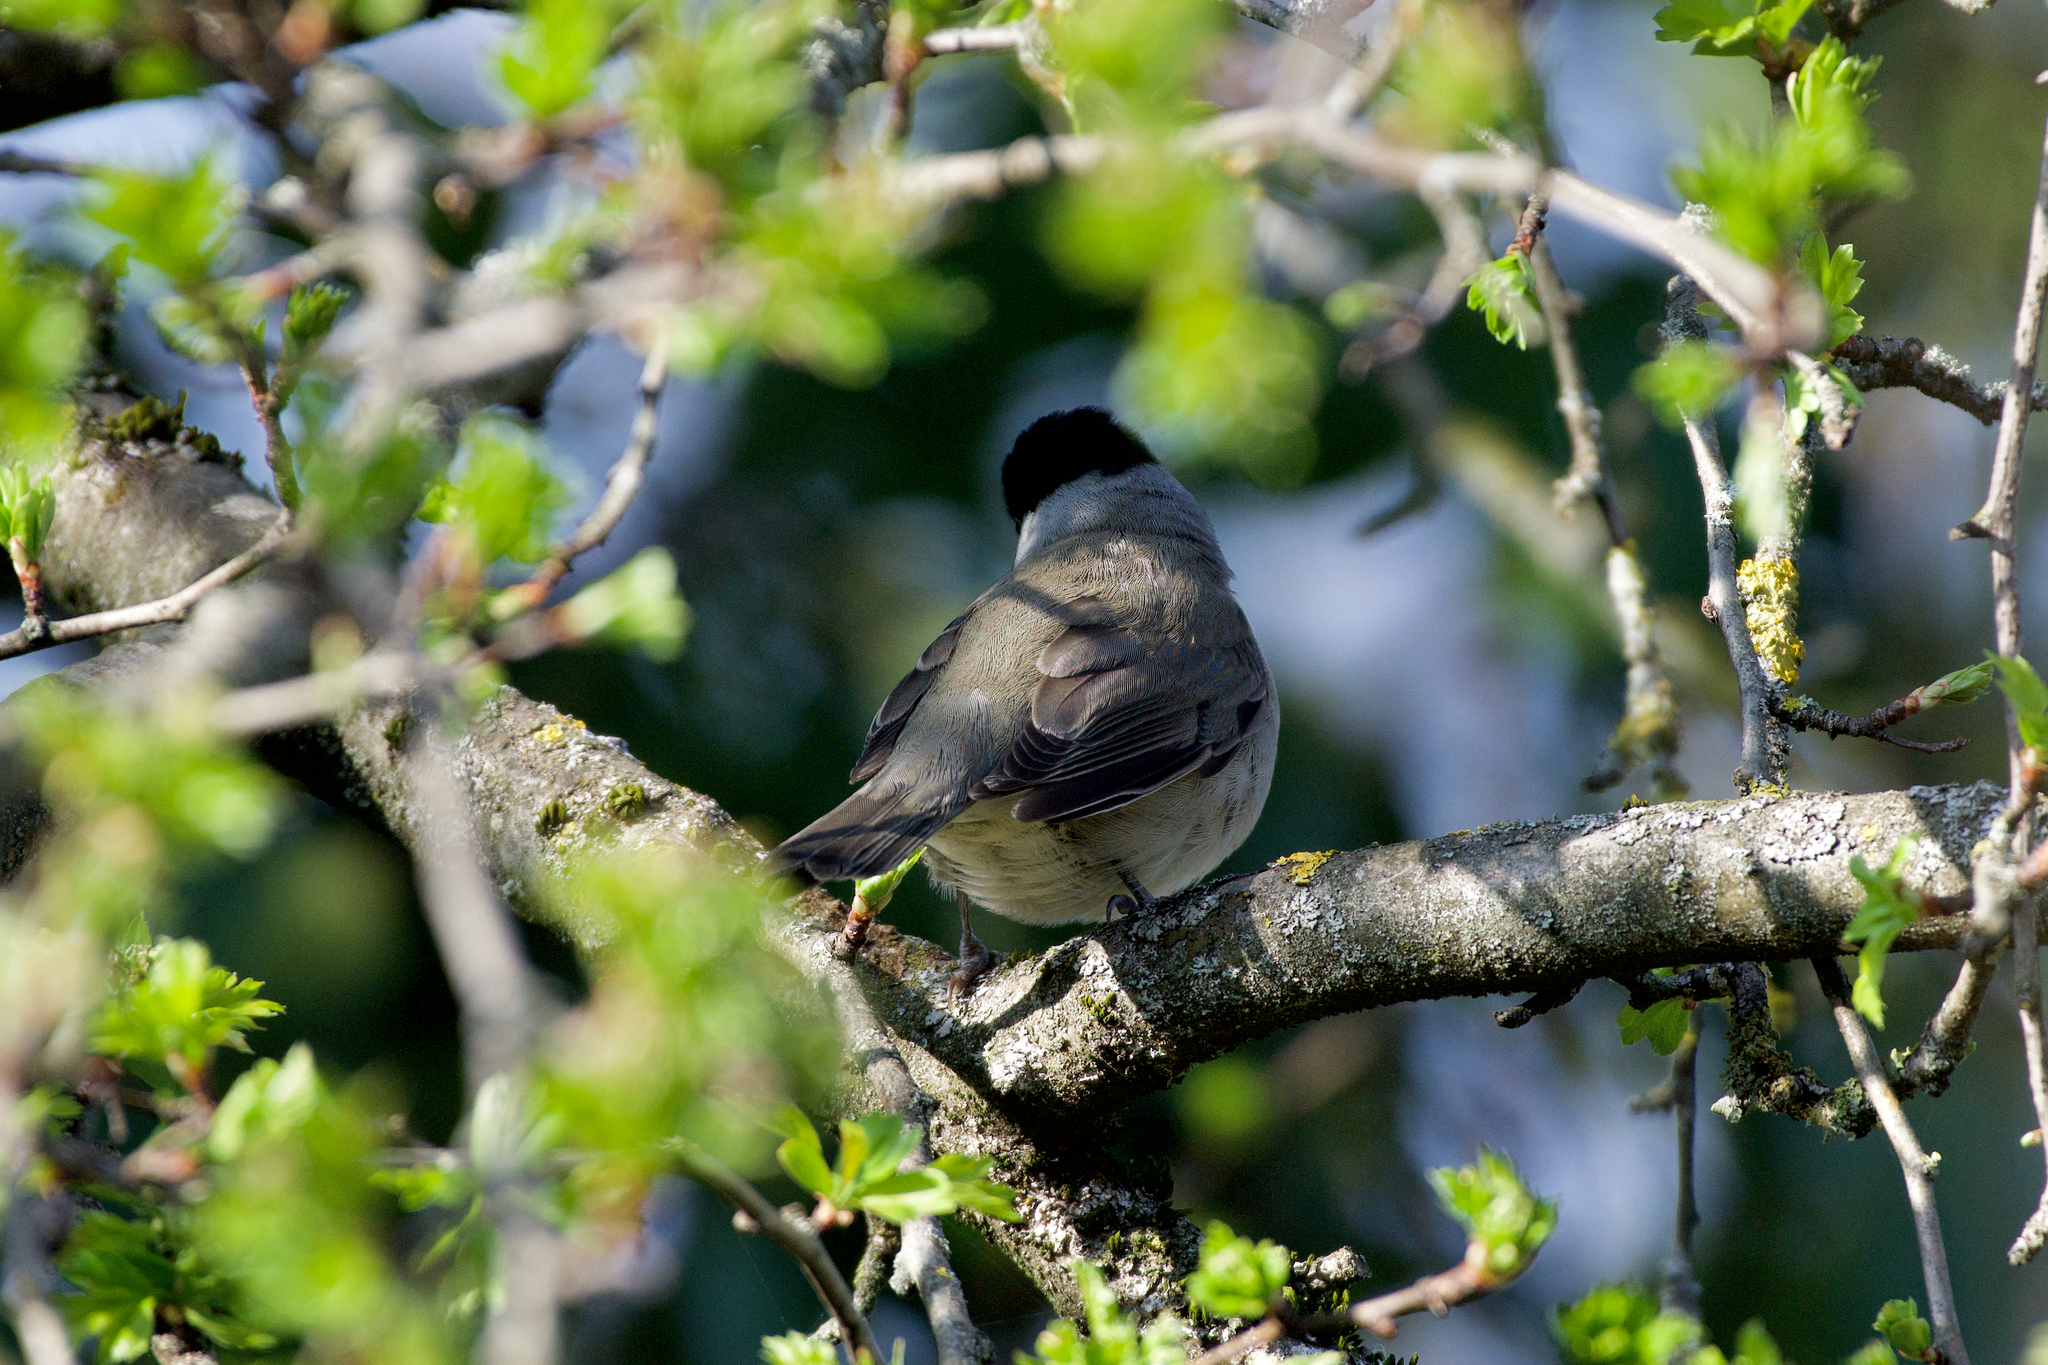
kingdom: Animalia
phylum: Chordata
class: Aves
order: Passeriformes
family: Sylviidae
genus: Sylvia
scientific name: Sylvia atricapilla
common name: Eurasian blackcap
